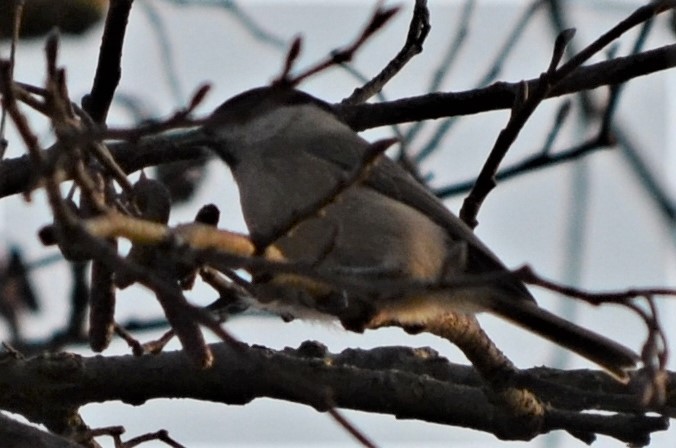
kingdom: Animalia
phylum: Chordata
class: Aves
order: Passeriformes
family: Paridae
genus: Poecile
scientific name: Poecile montanus
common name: Willow tit
